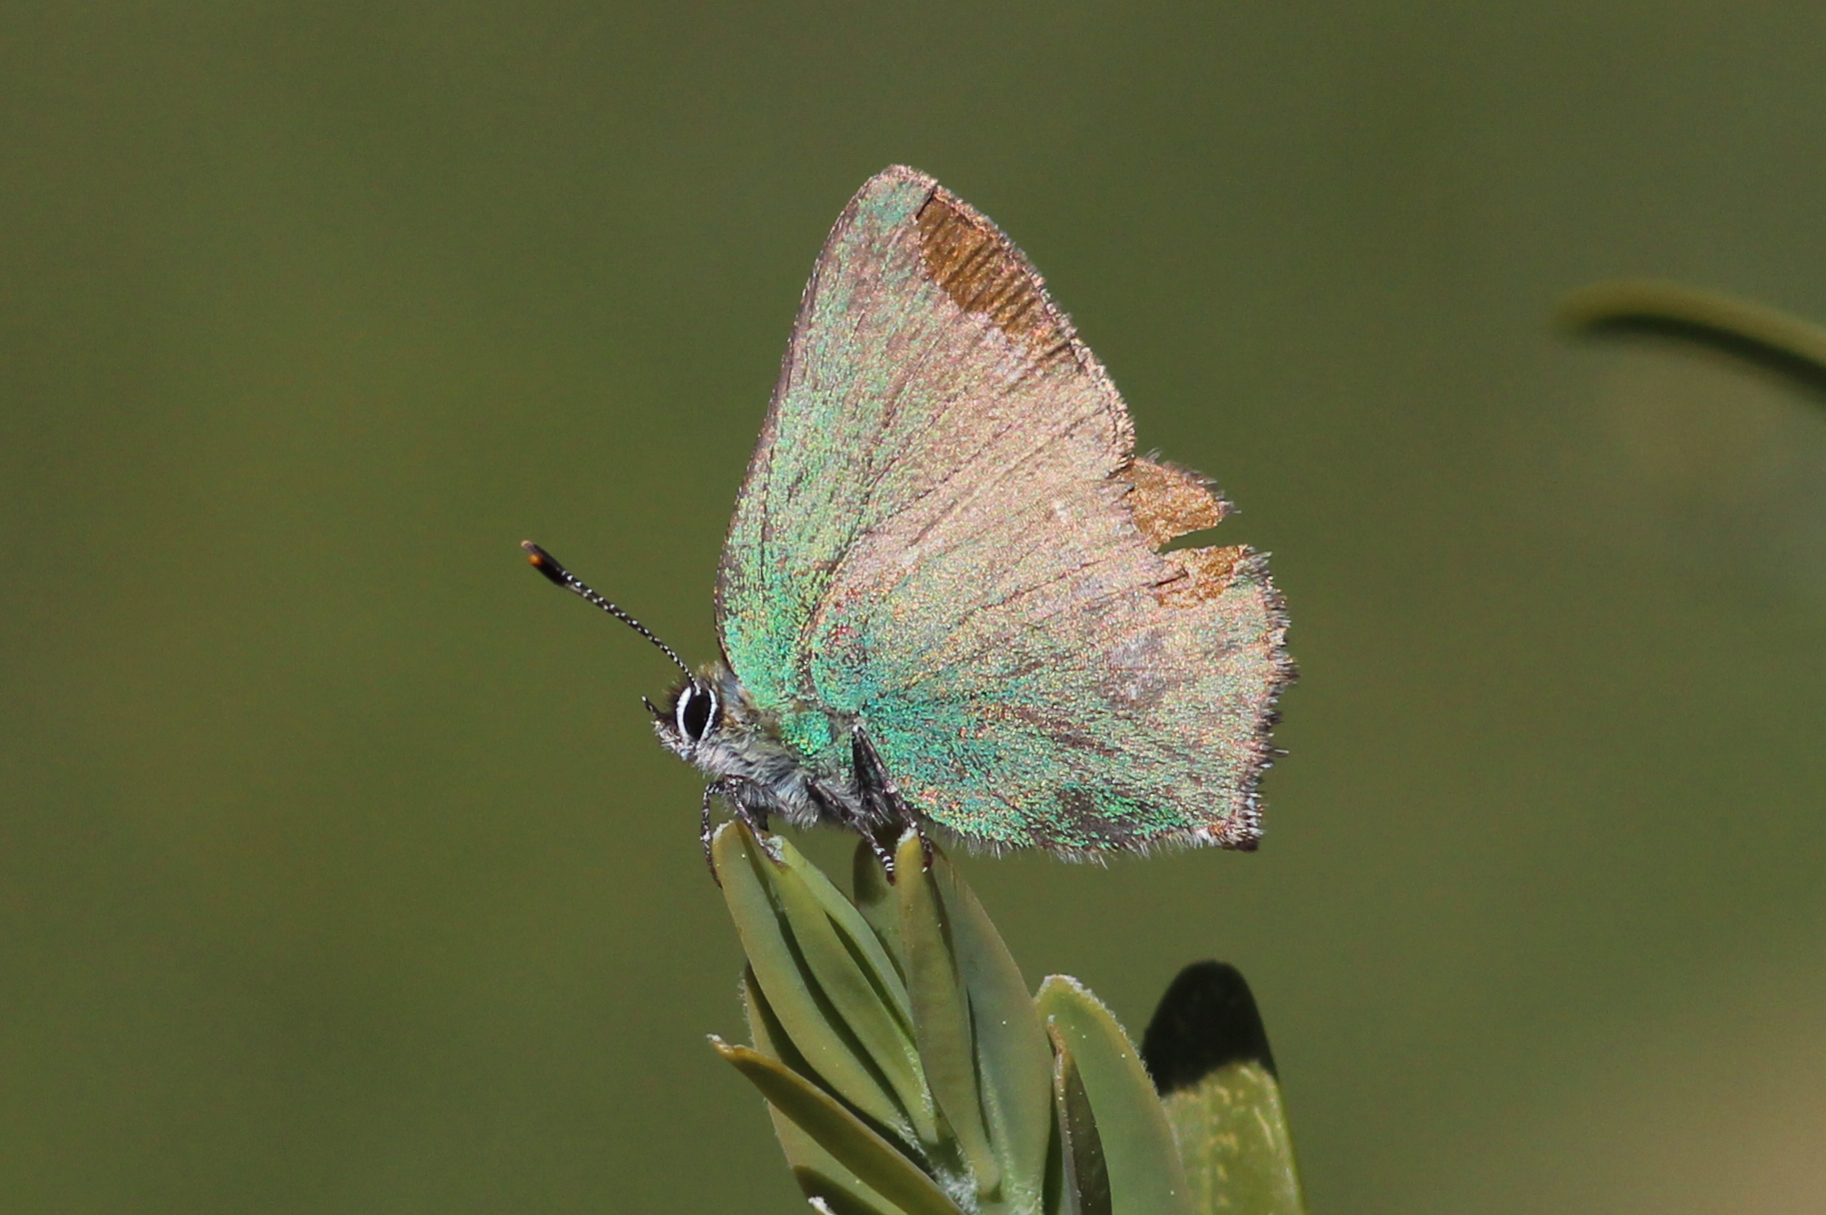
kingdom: Animalia
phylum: Arthropoda
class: Insecta
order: Lepidoptera
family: Lycaenidae
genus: Callophrys
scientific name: Callophrys rubi
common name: Green hairstreak
